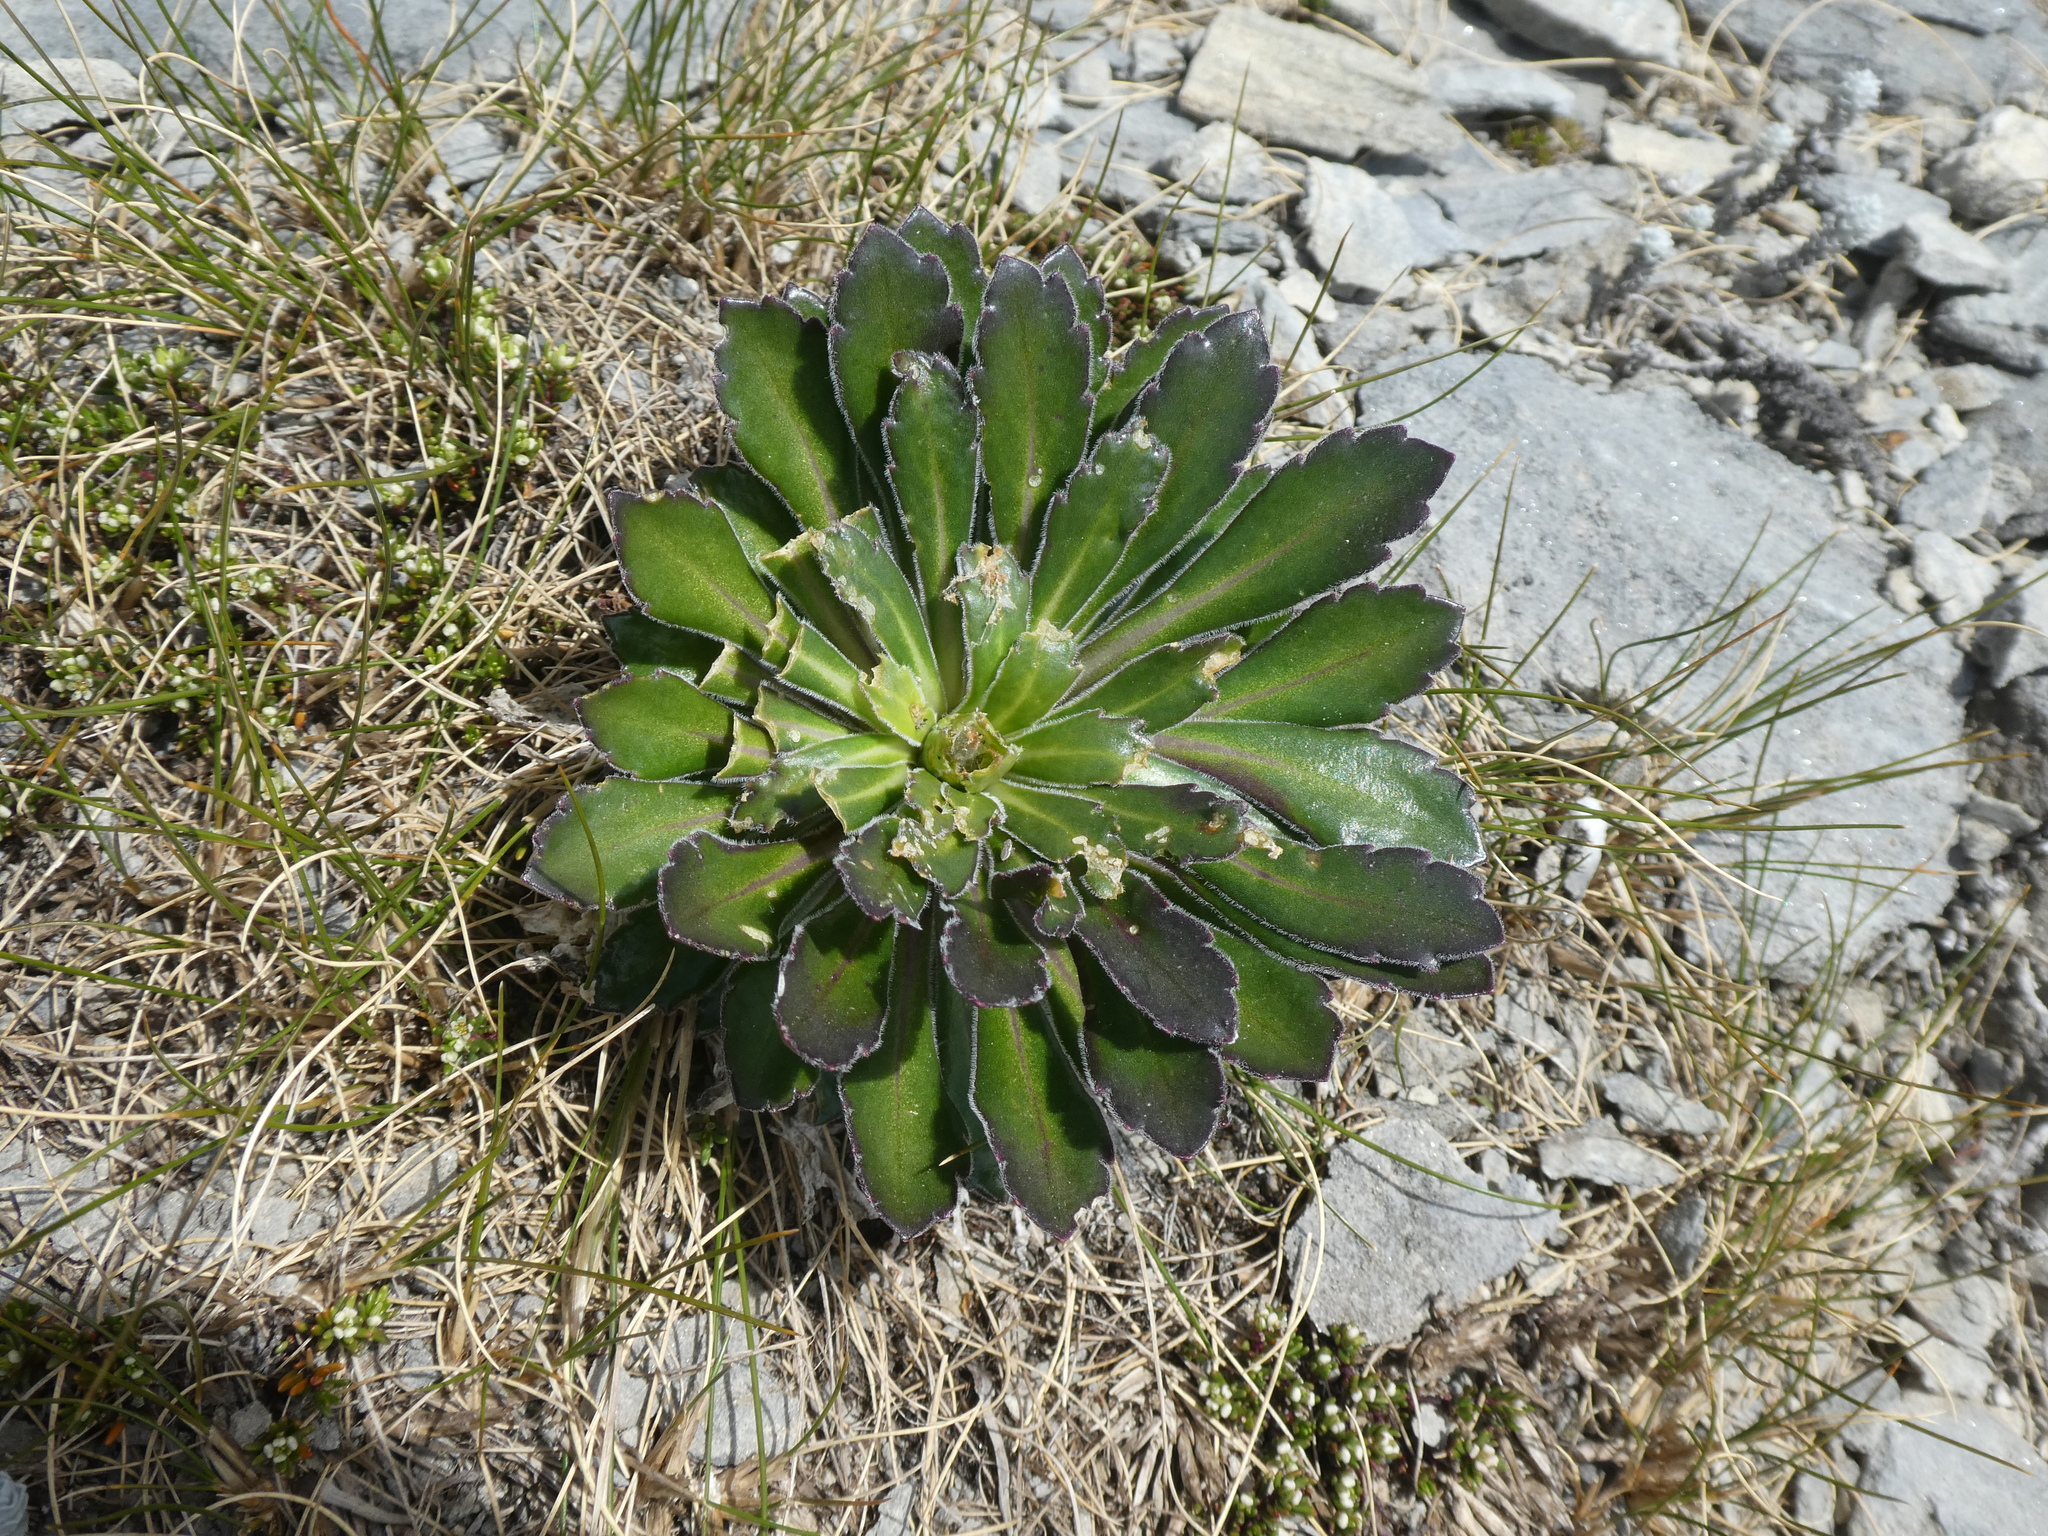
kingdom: Plantae
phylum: Tracheophyta
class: Magnoliopsida
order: Brassicales
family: Brassicaceae
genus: Pachycladon
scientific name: Pachycladon latisiliquum
